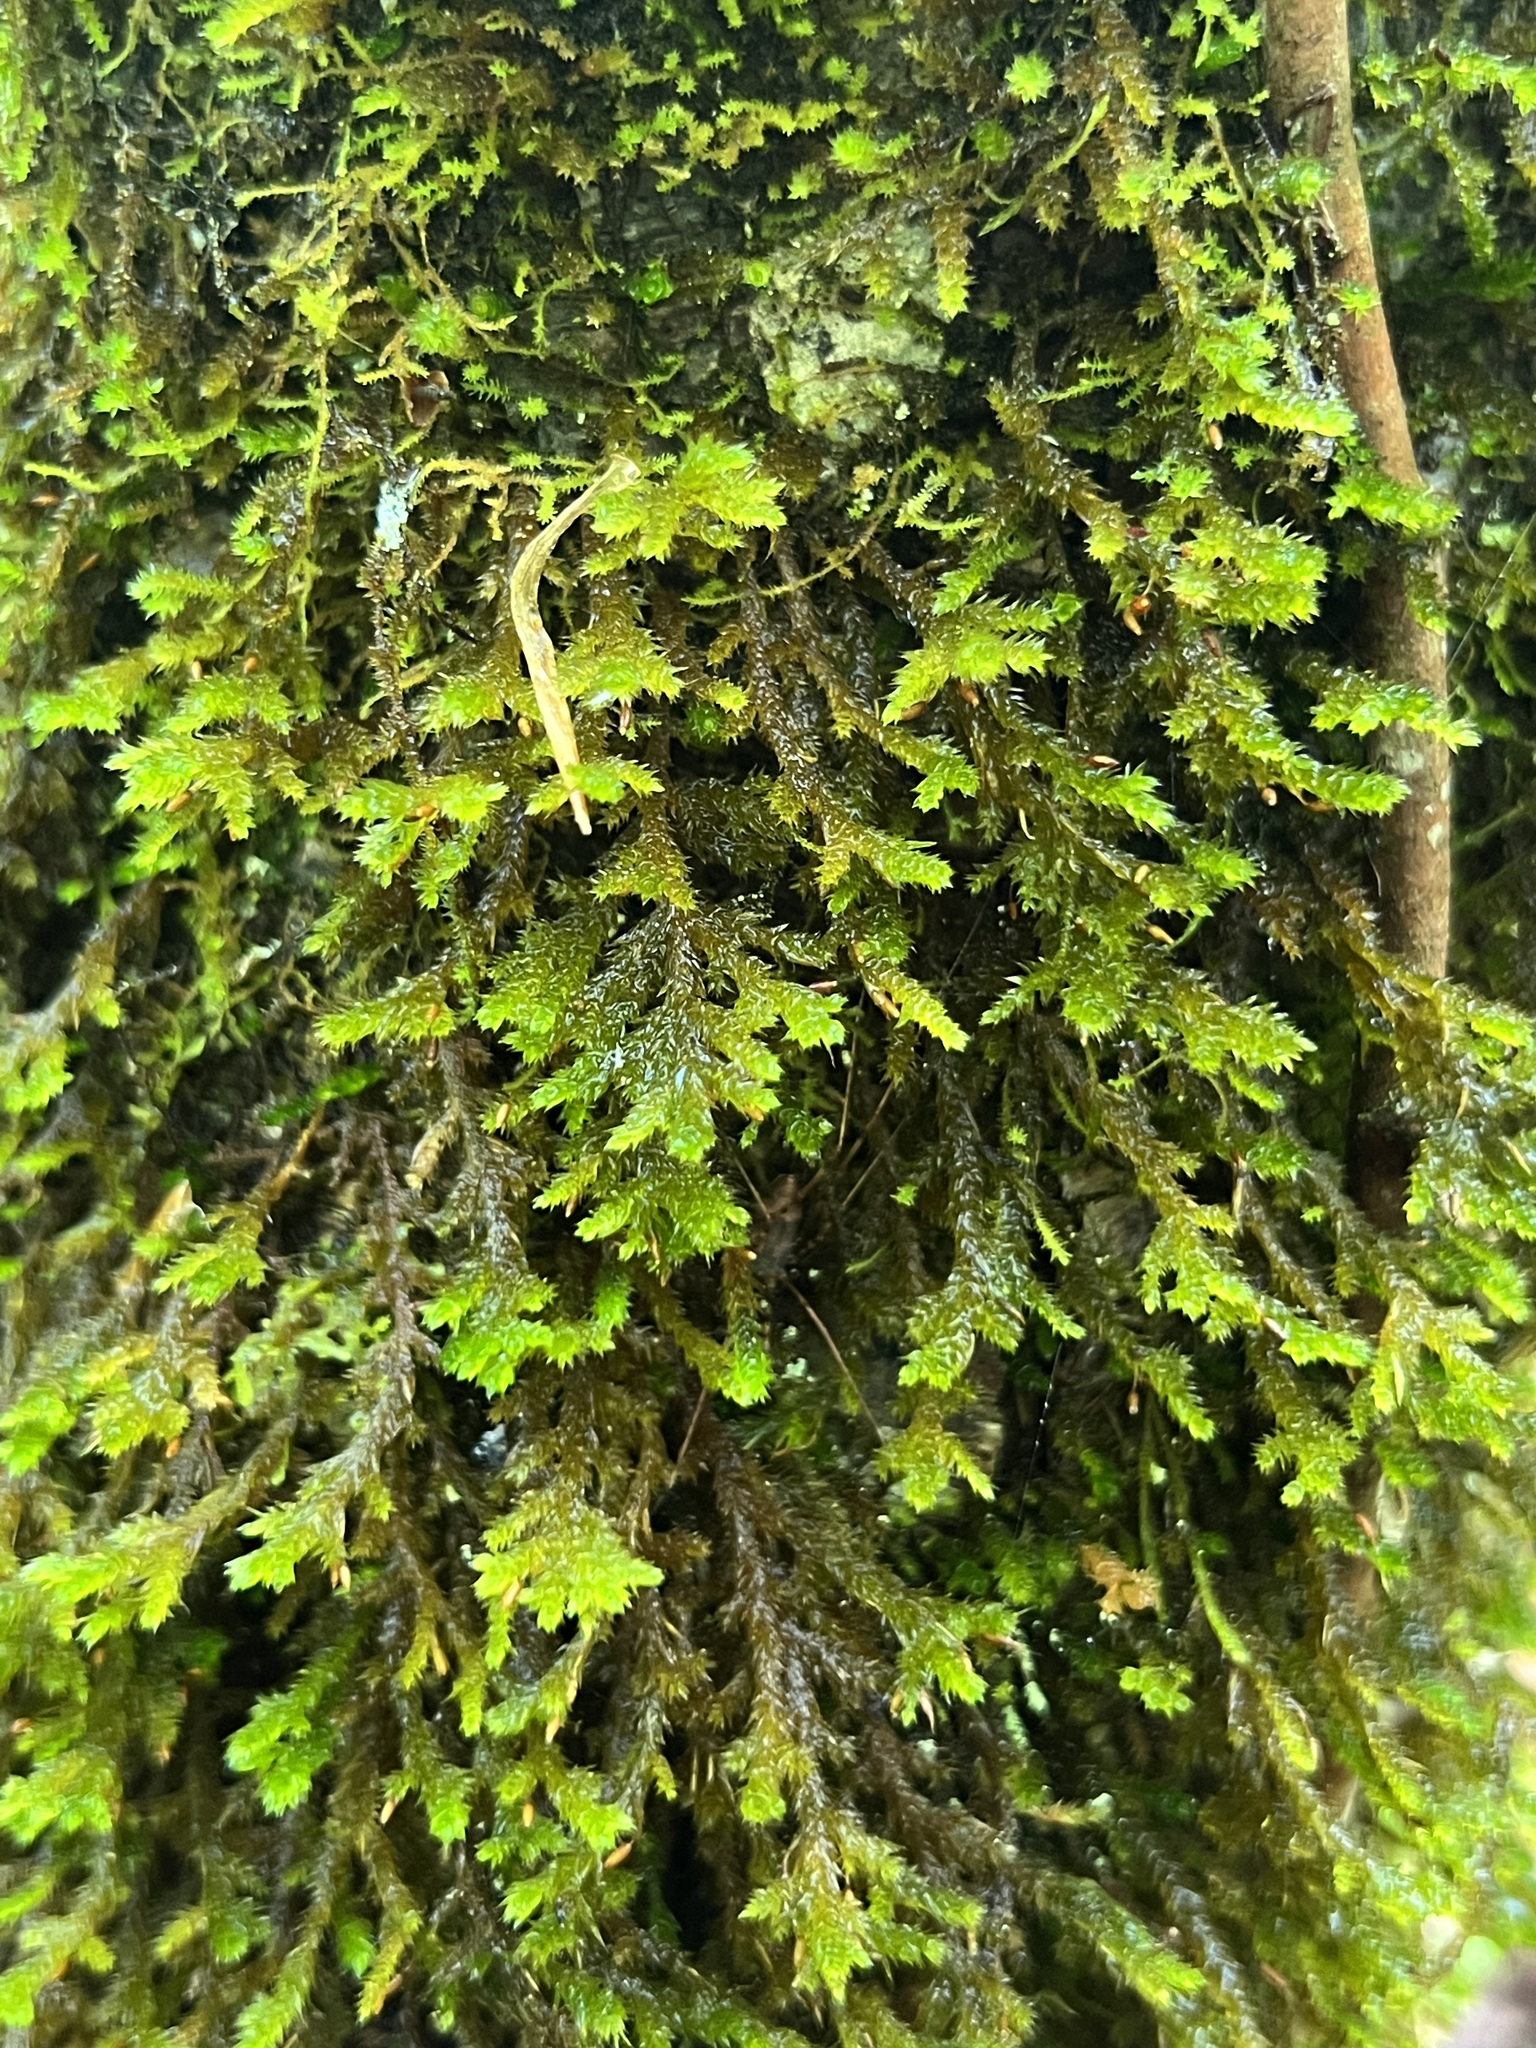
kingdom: Plantae
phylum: Bryophyta
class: Bryopsida
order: Hypnales
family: Neckeraceae
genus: Forsstroemia
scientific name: Forsstroemia trichomitria
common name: Fan moss
